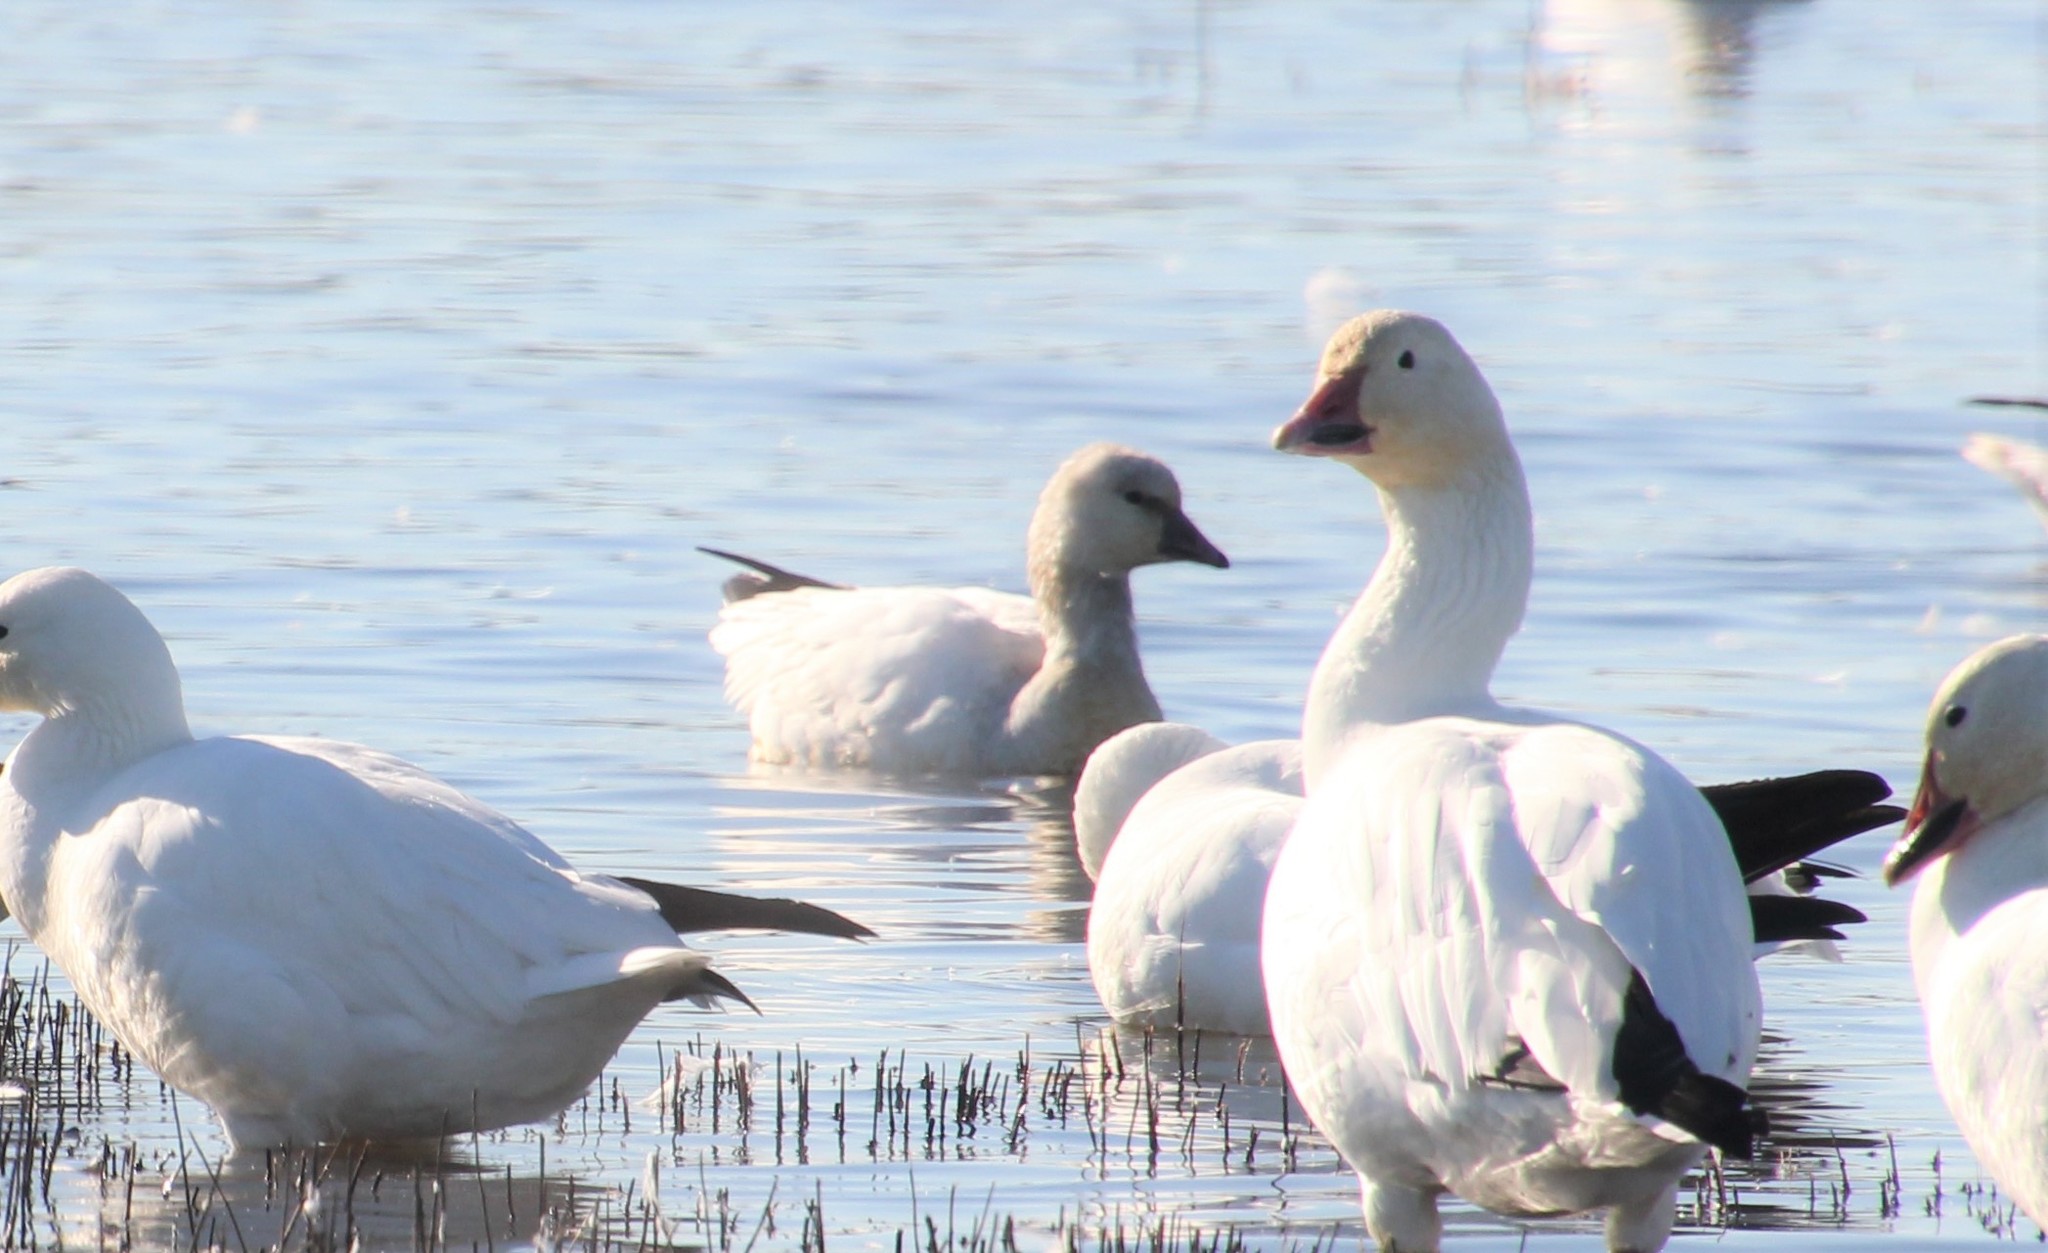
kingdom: Animalia
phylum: Chordata
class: Aves
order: Anseriformes
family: Anatidae
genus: Anser
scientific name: Anser rossii
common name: Ross's goose
